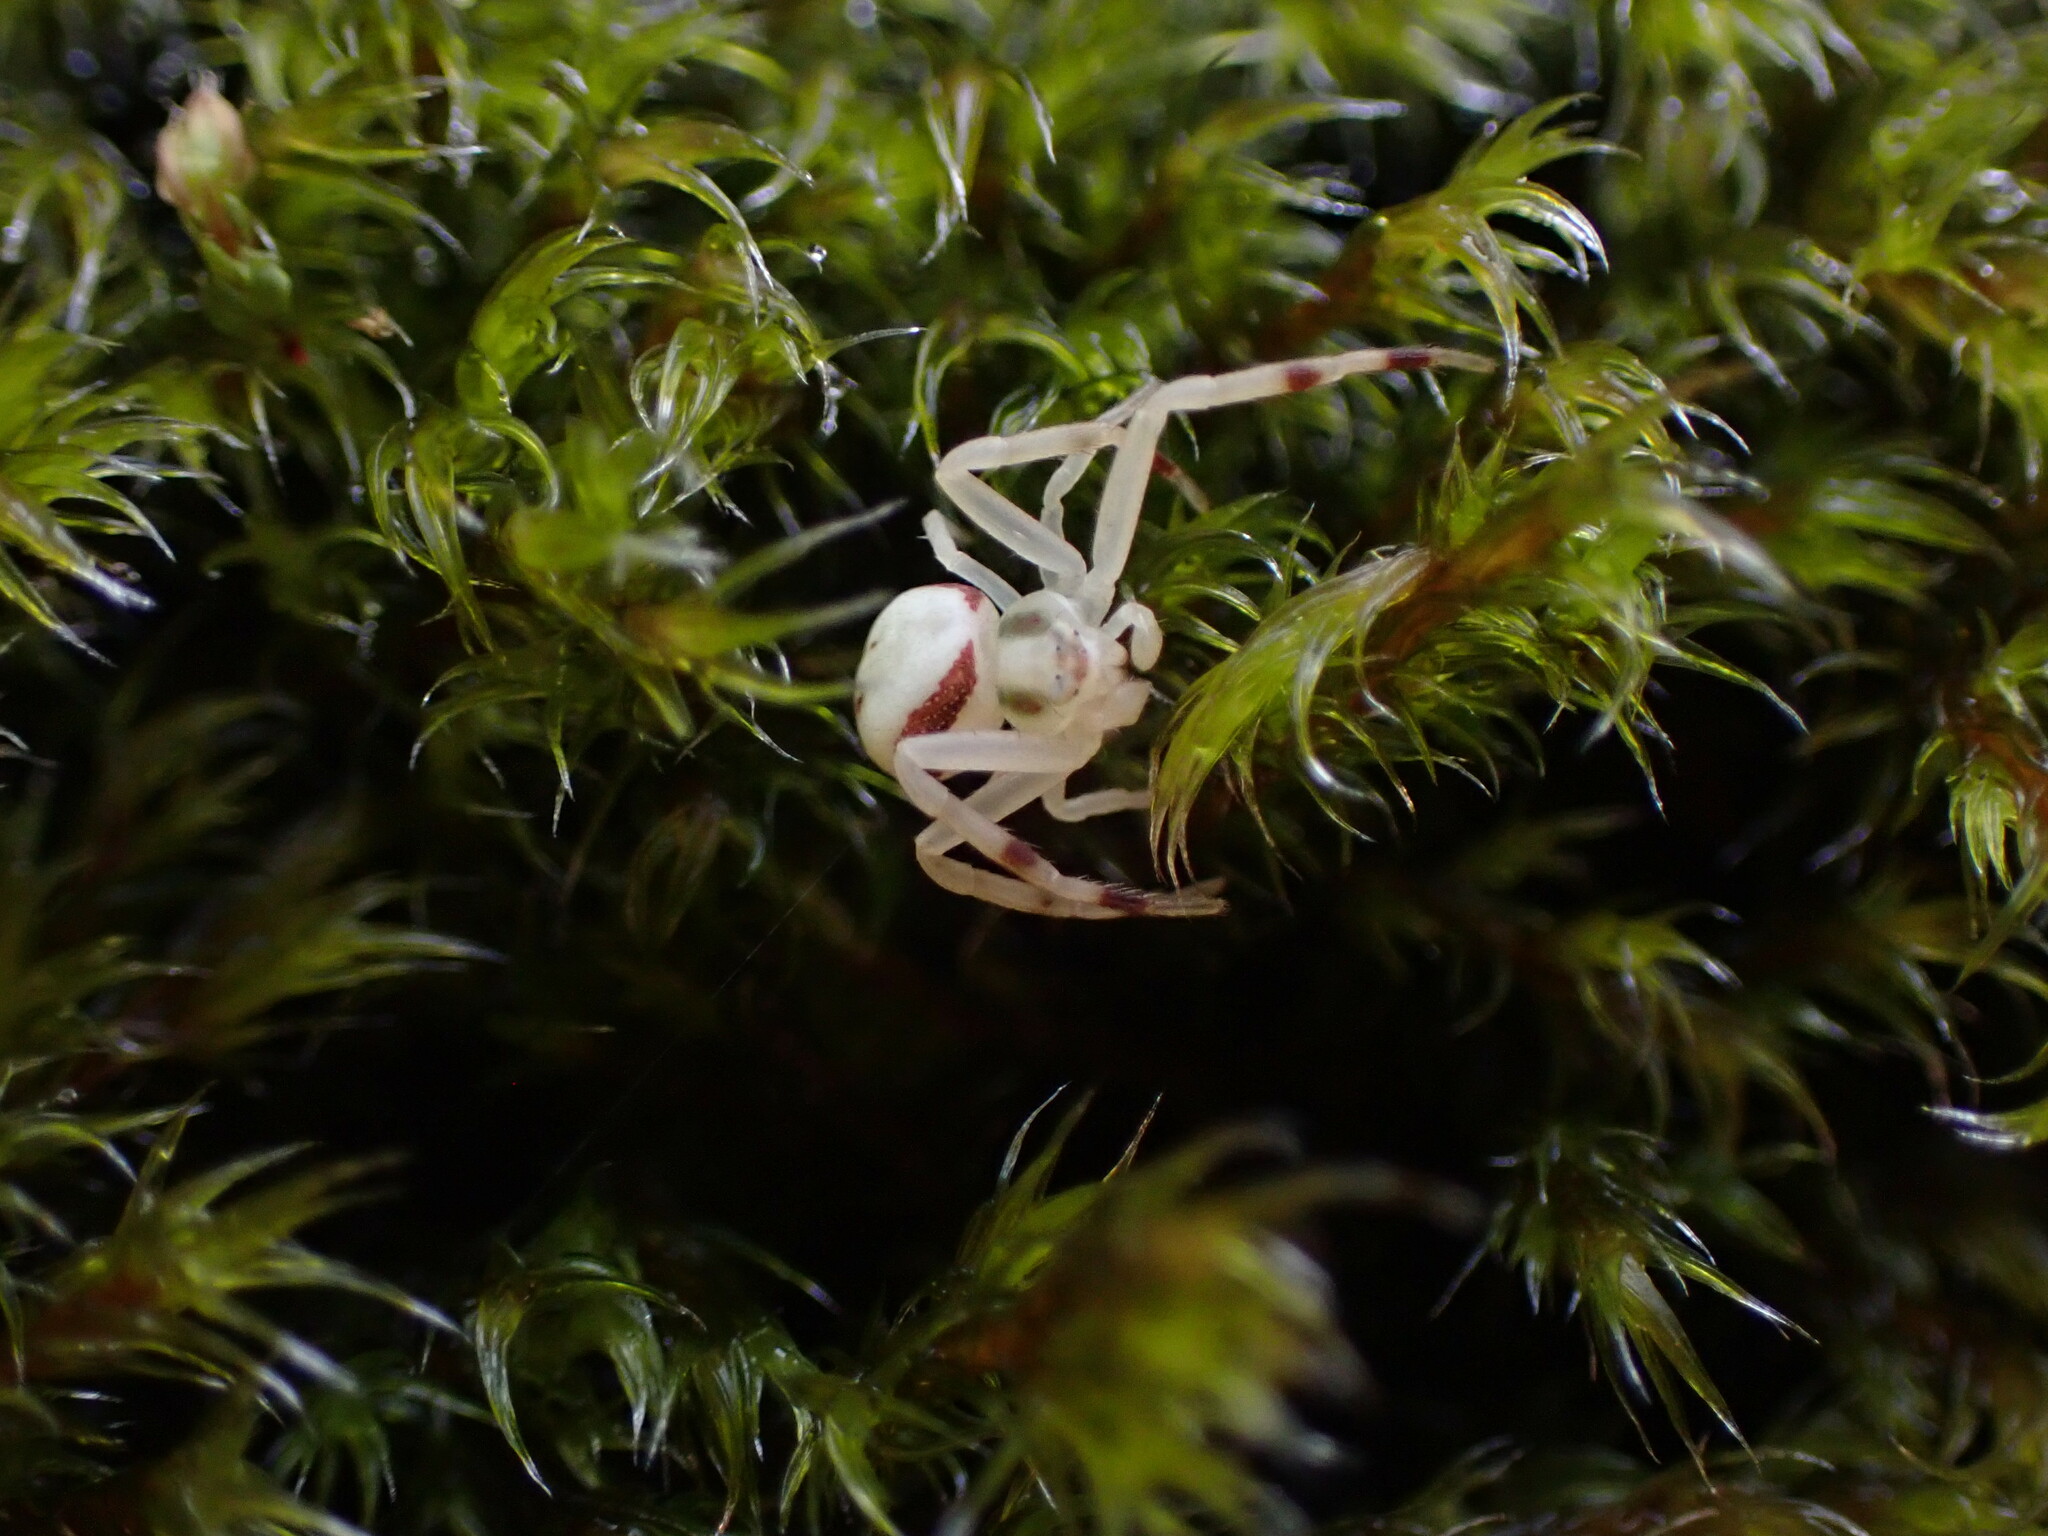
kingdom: Animalia
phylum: Arthropoda
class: Arachnida
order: Araneae
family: Thomisidae
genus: Misumena
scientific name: Misumena vatia
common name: Goldenrod crab spider
